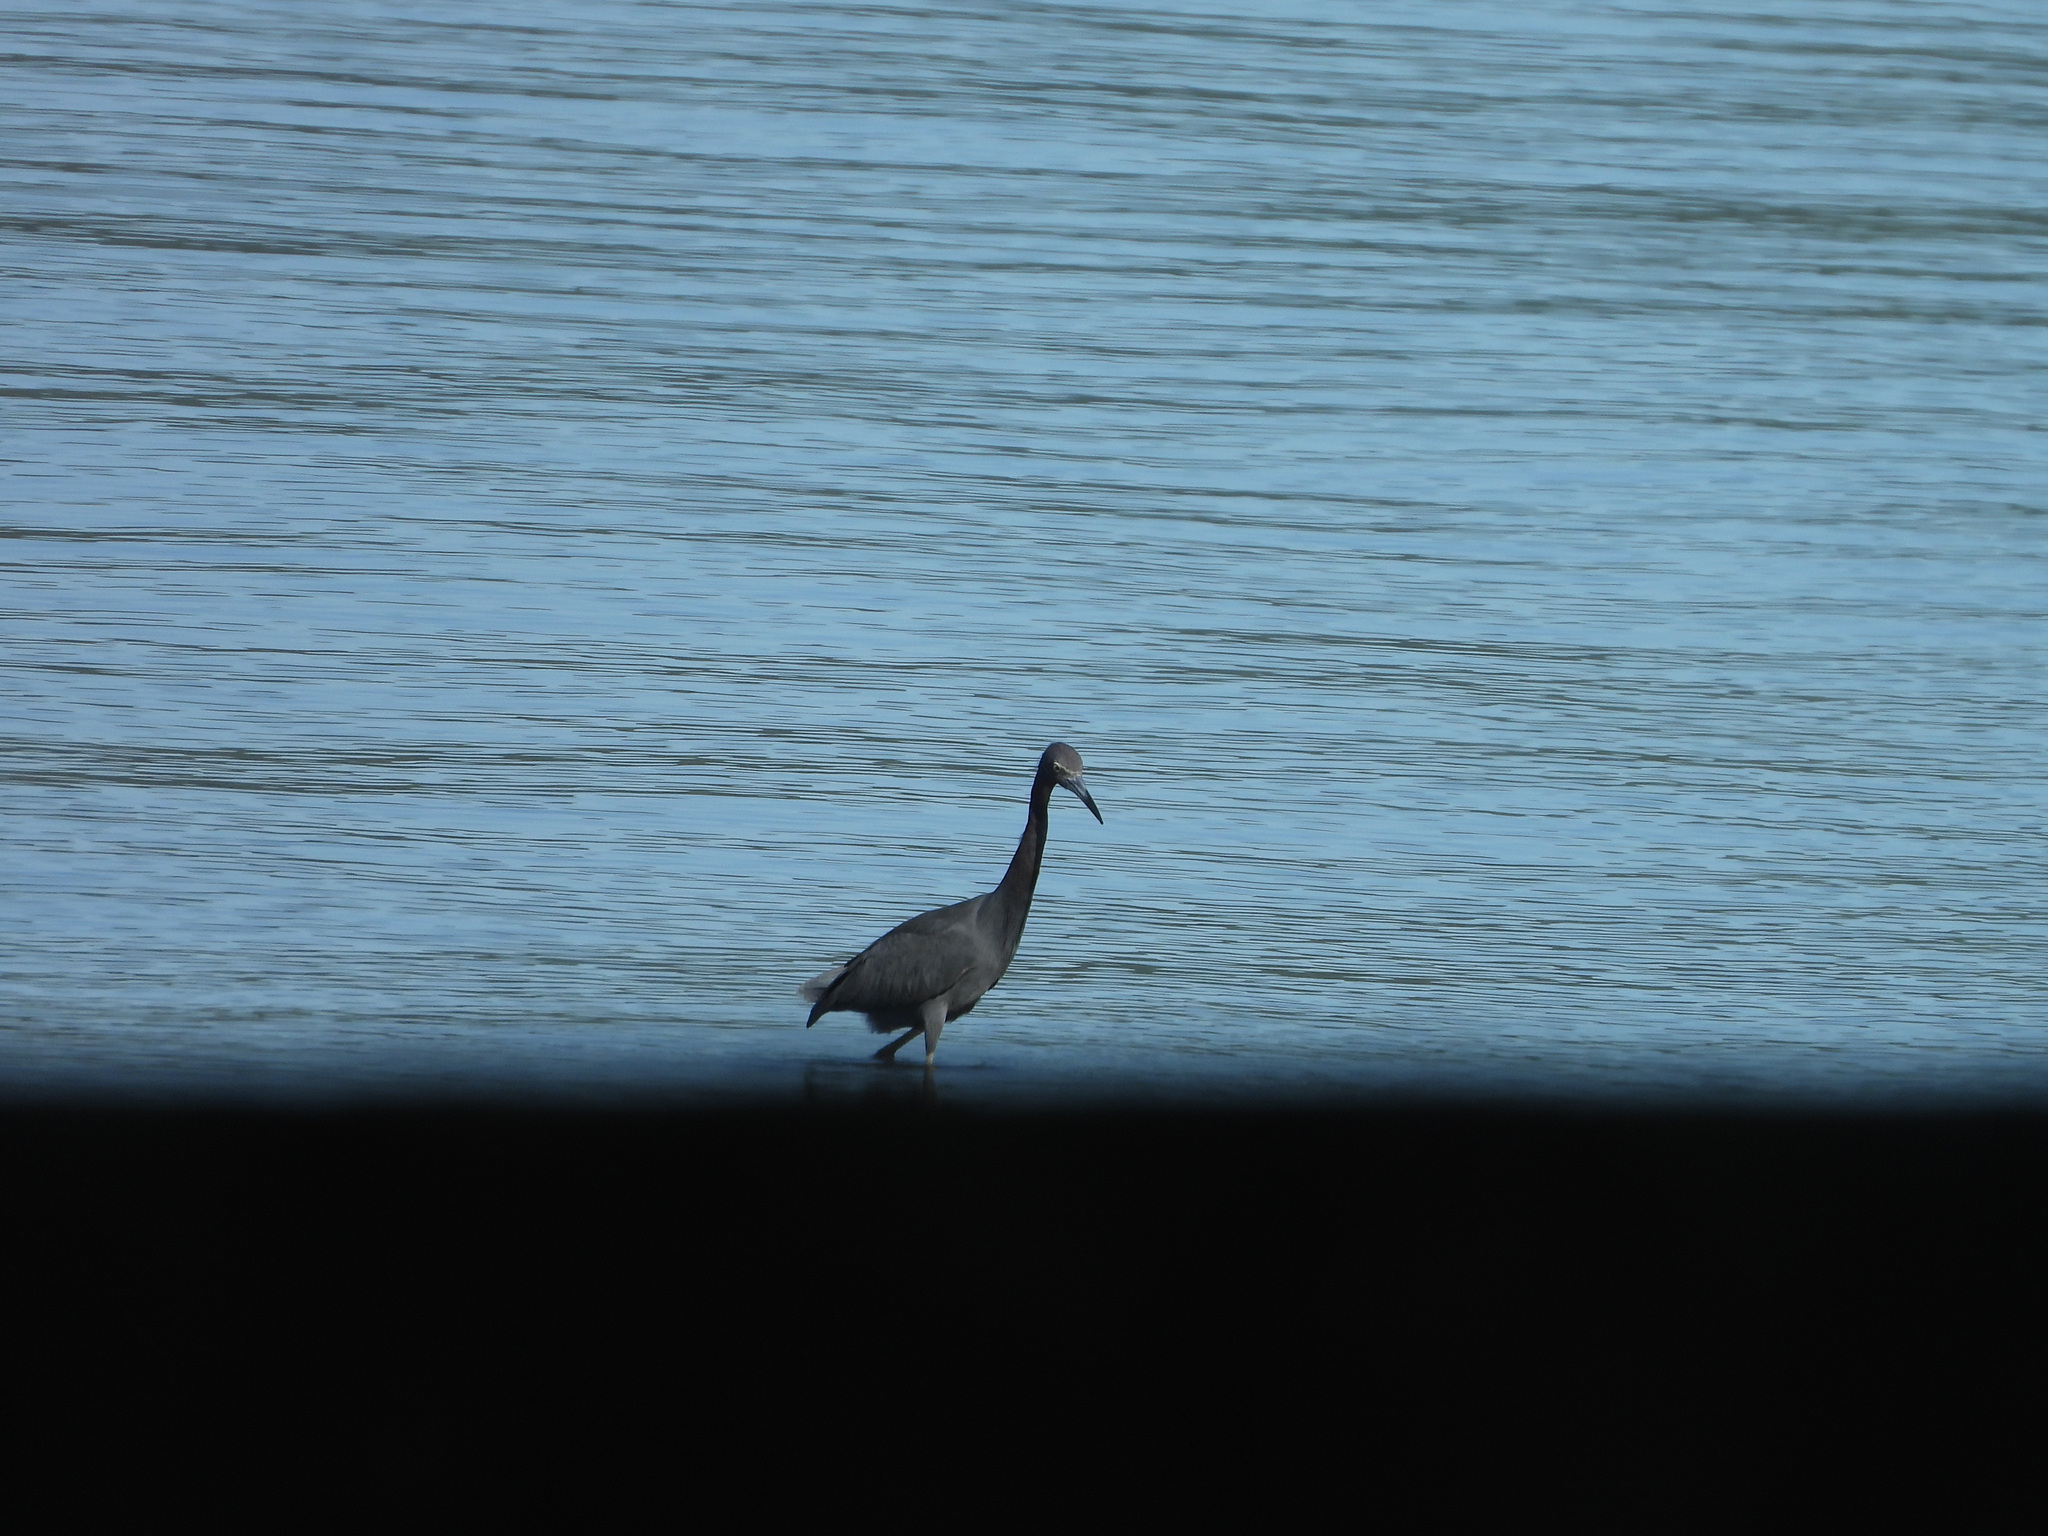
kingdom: Animalia
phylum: Chordata
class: Aves
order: Pelecaniformes
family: Ardeidae
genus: Egretta
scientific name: Egretta caerulea
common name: Little blue heron
